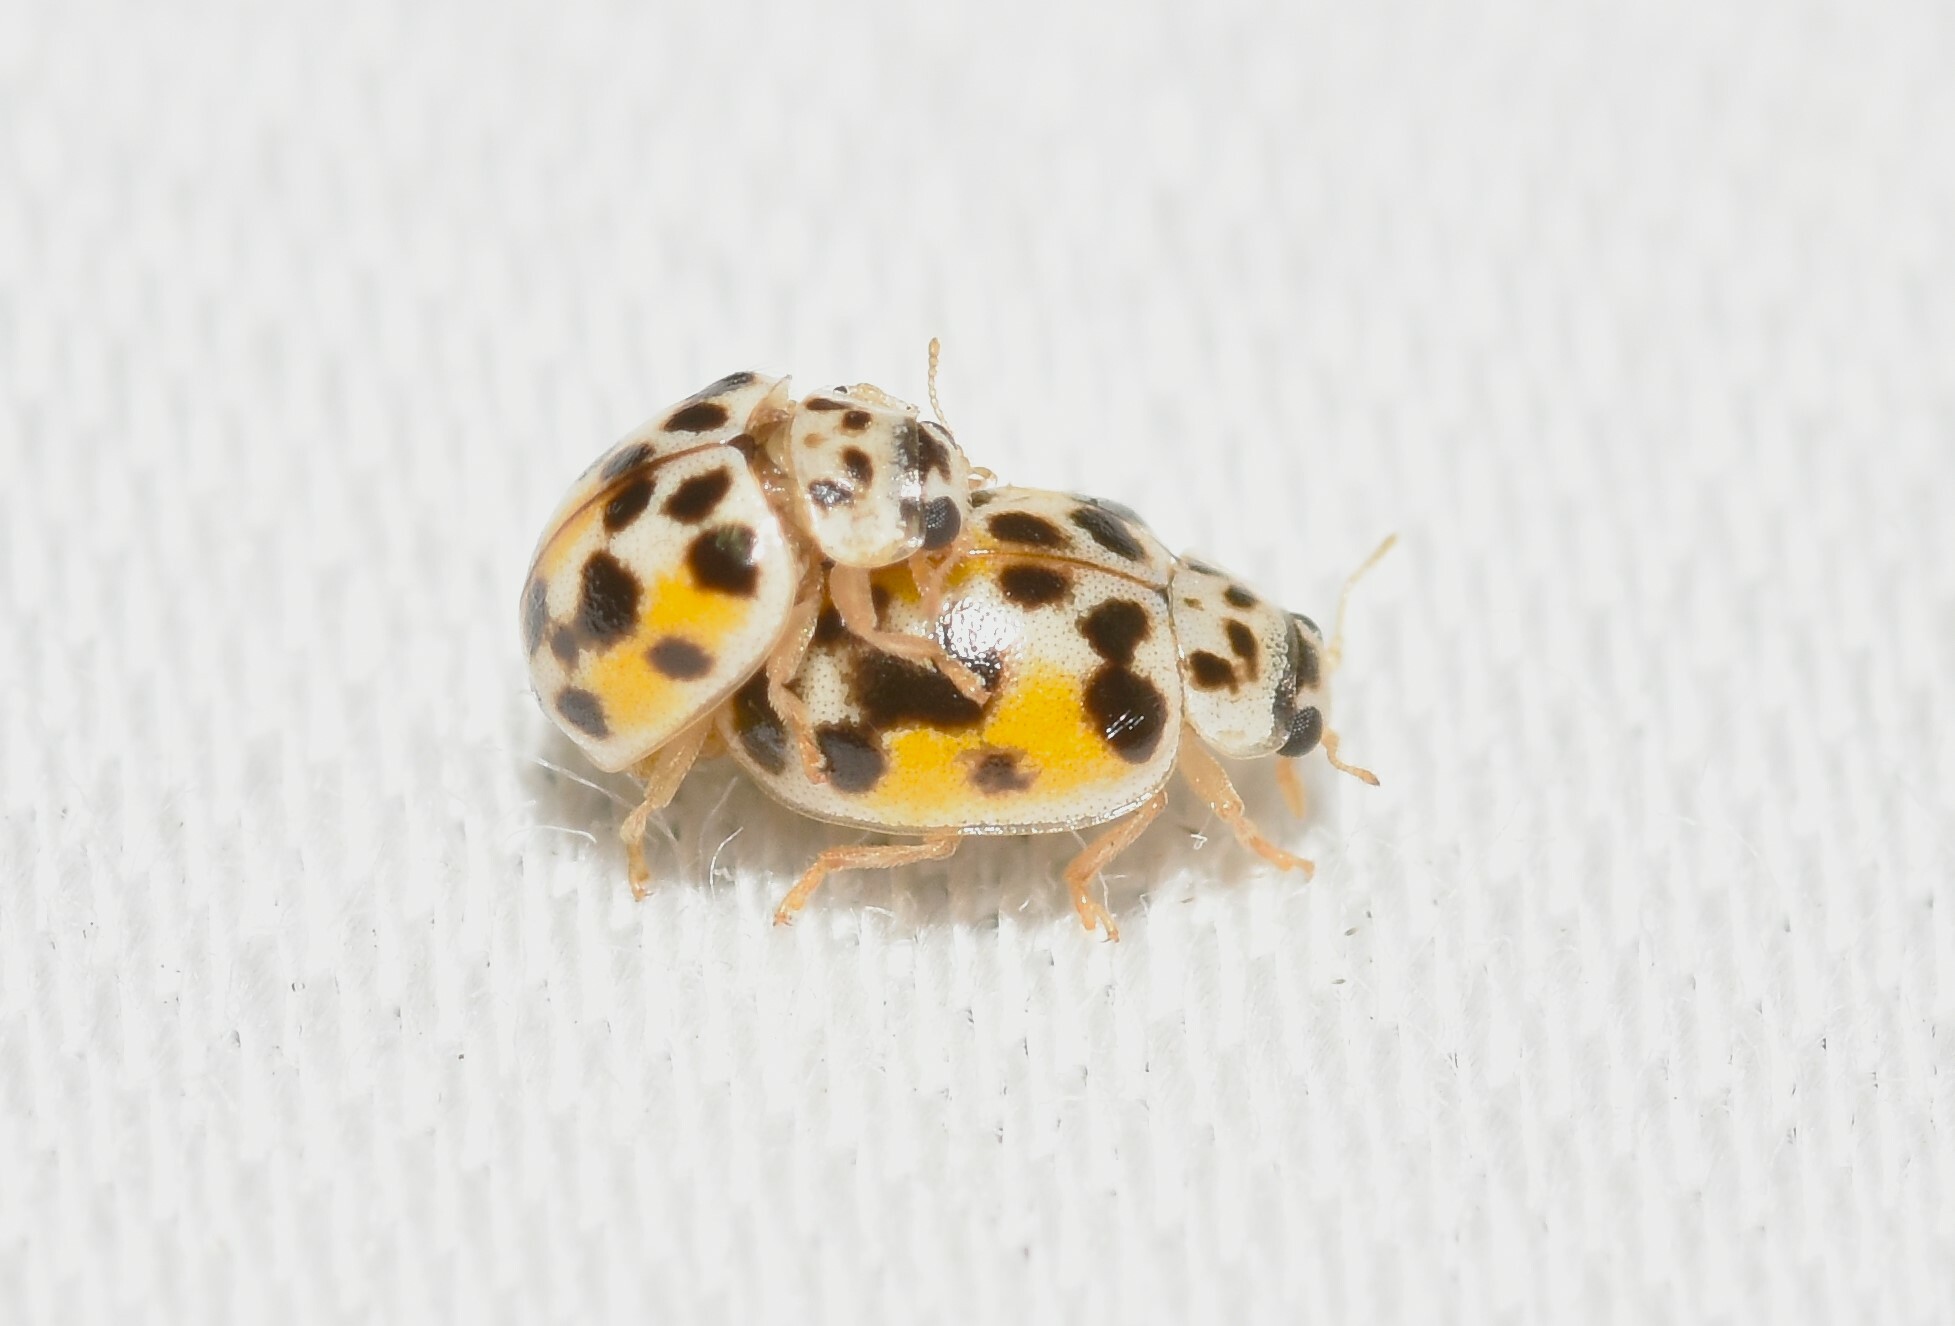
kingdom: Animalia
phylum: Arthropoda
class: Insecta
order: Coleoptera
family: Coccinellidae
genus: Psyllobora
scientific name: Psyllobora vigintimaculata
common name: Ladybird beetle
